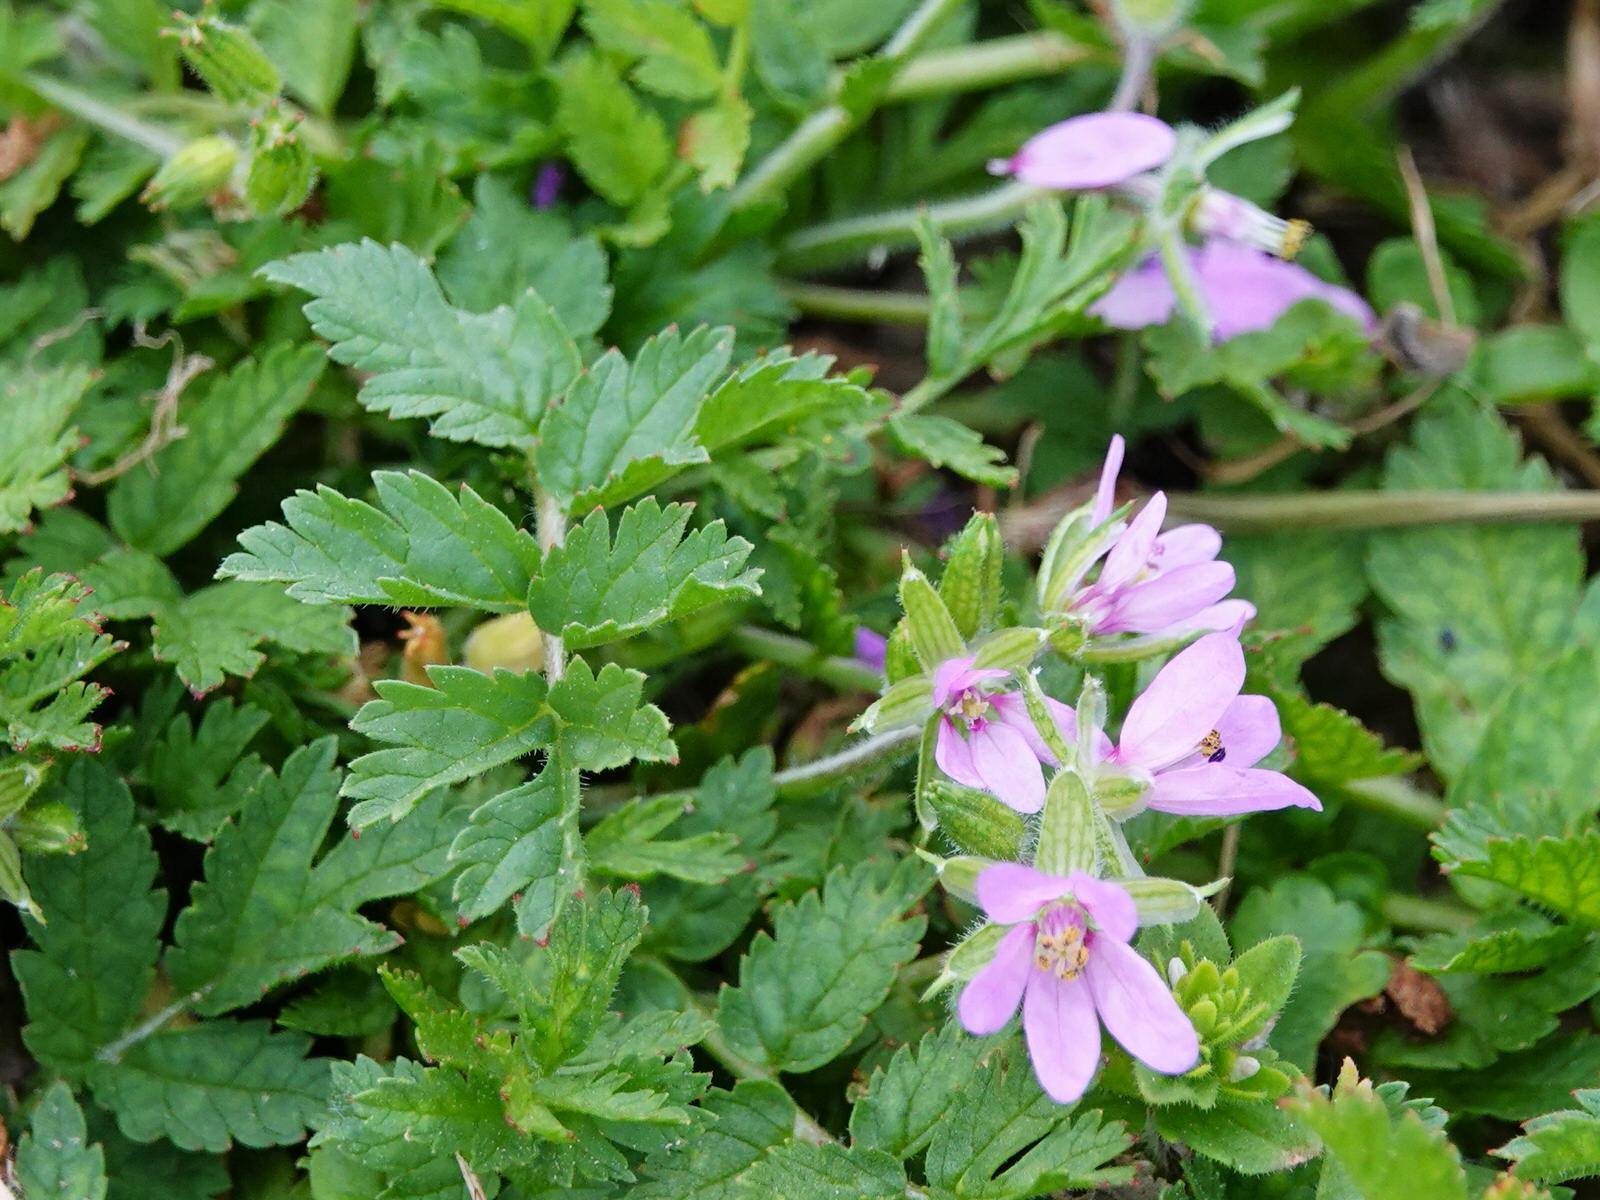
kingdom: Plantae
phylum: Tracheophyta
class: Magnoliopsida
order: Geraniales
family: Geraniaceae
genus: Erodium
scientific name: Erodium moschatum
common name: Musk stork's-bill
